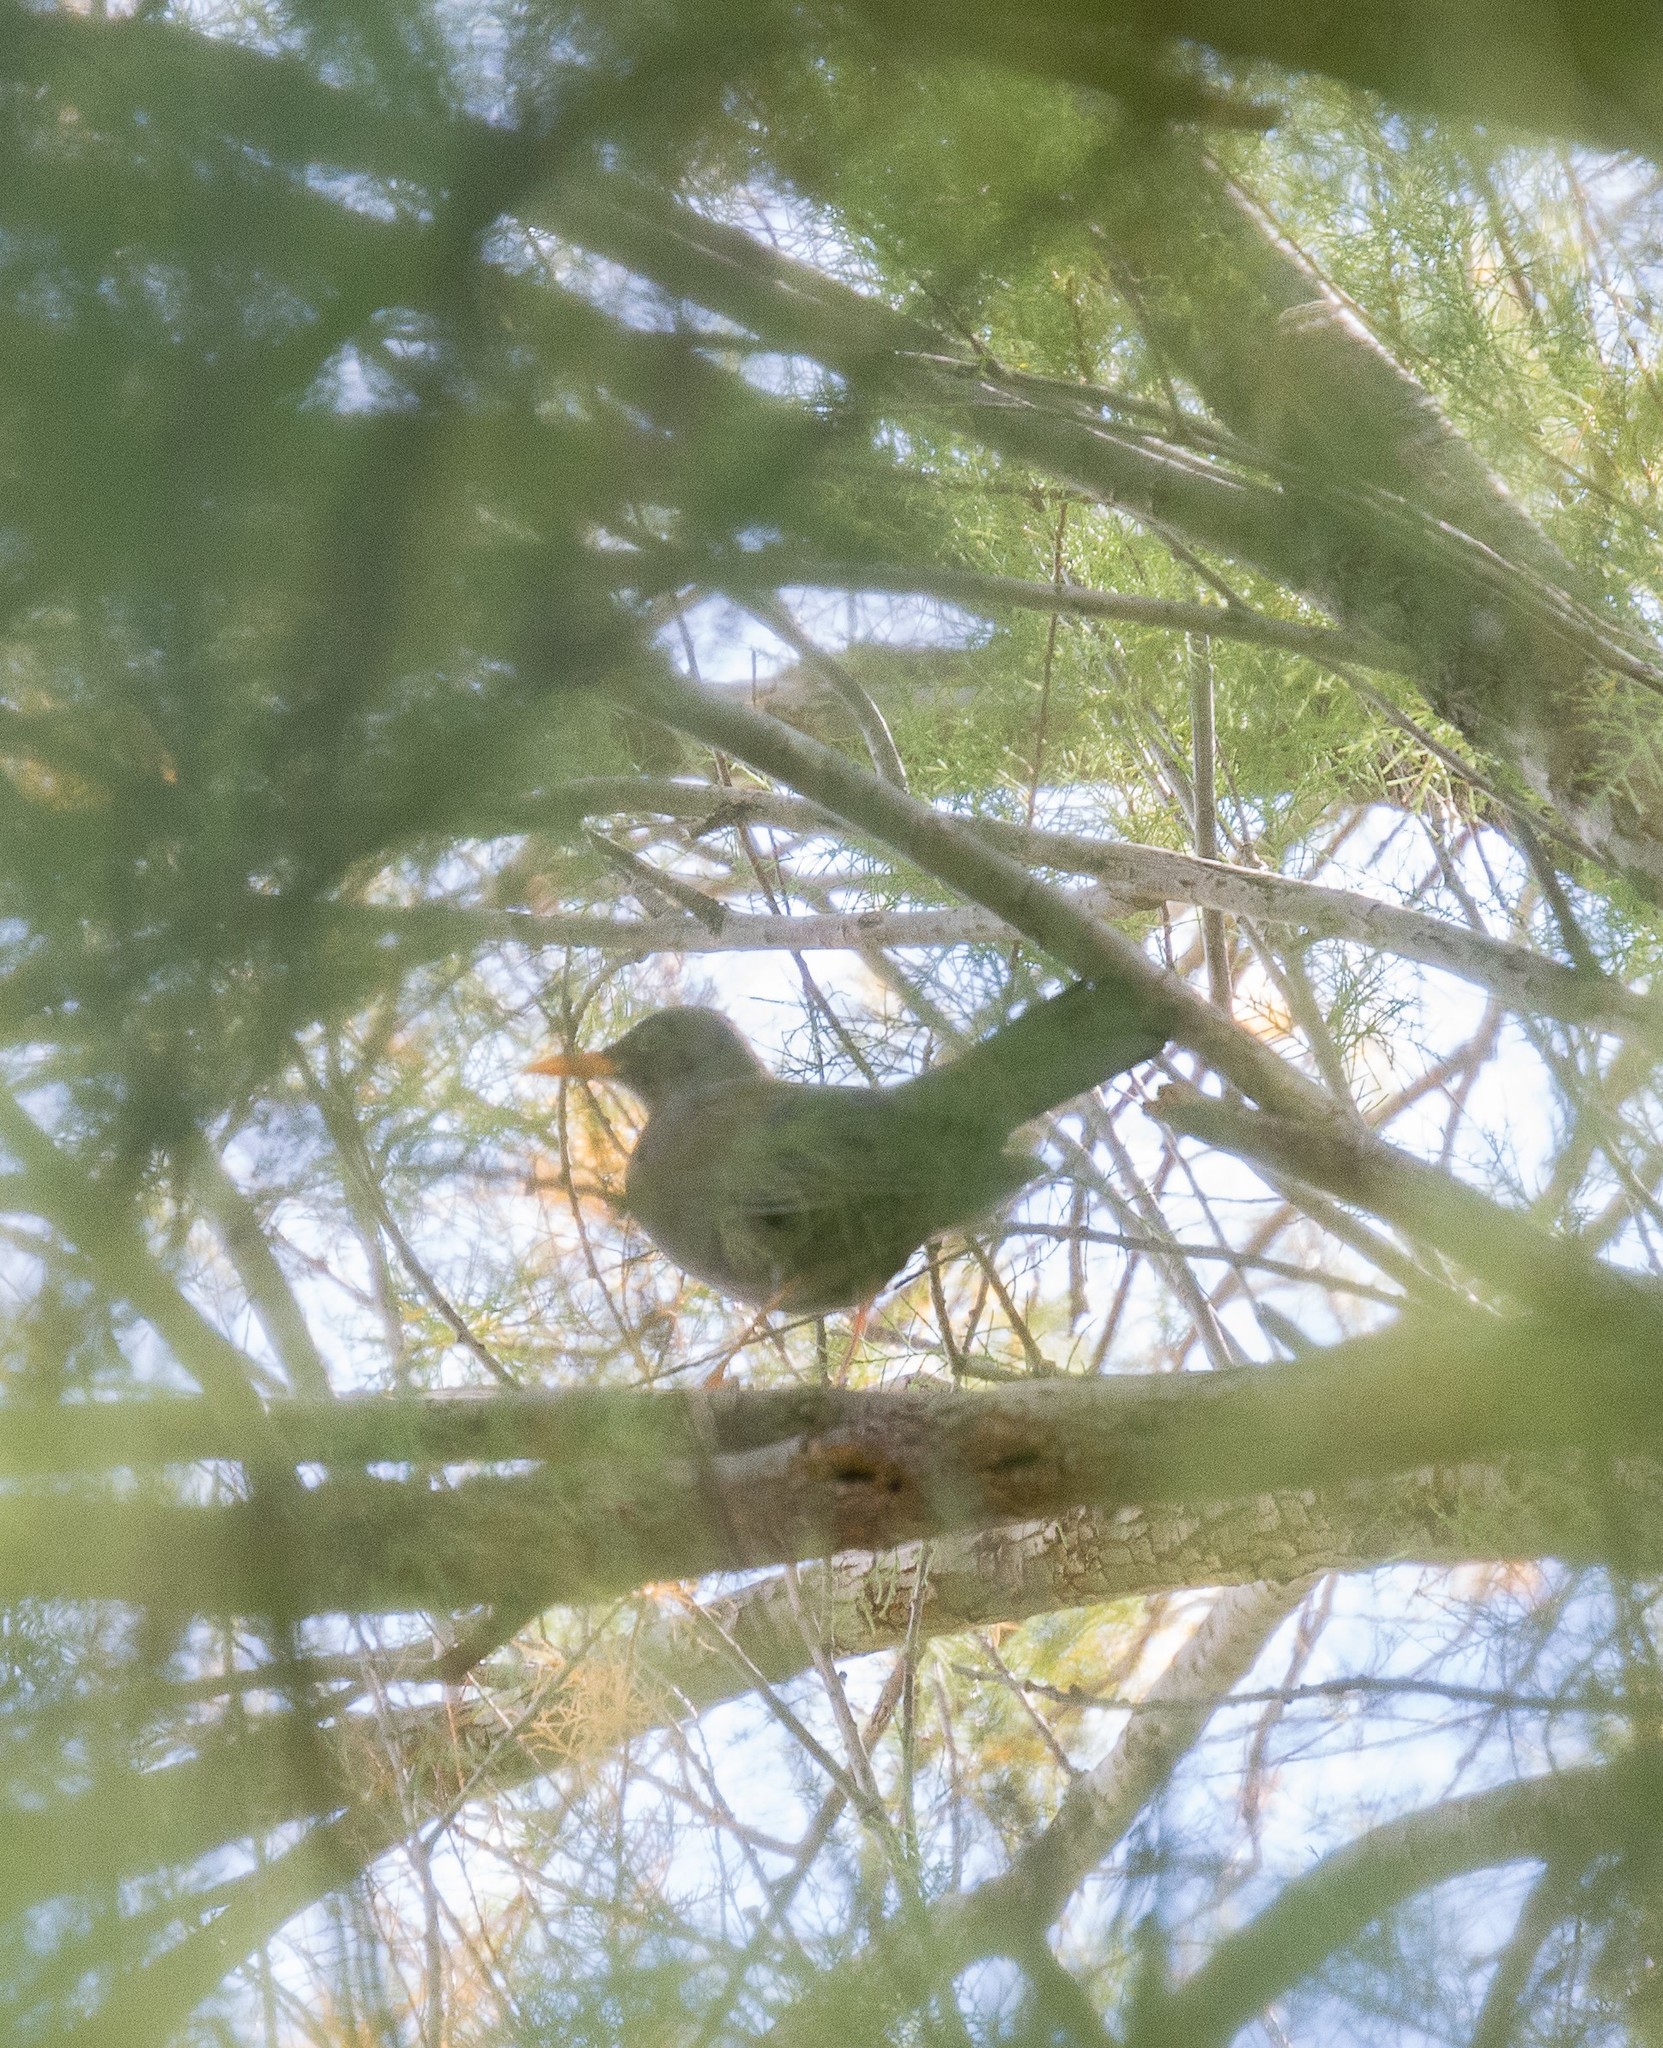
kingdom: Animalia
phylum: Chordata
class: Aves
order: Passeriformes
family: Turdidae
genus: Turdus
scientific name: Turdus chiguanco
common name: Chiguanco thrush
